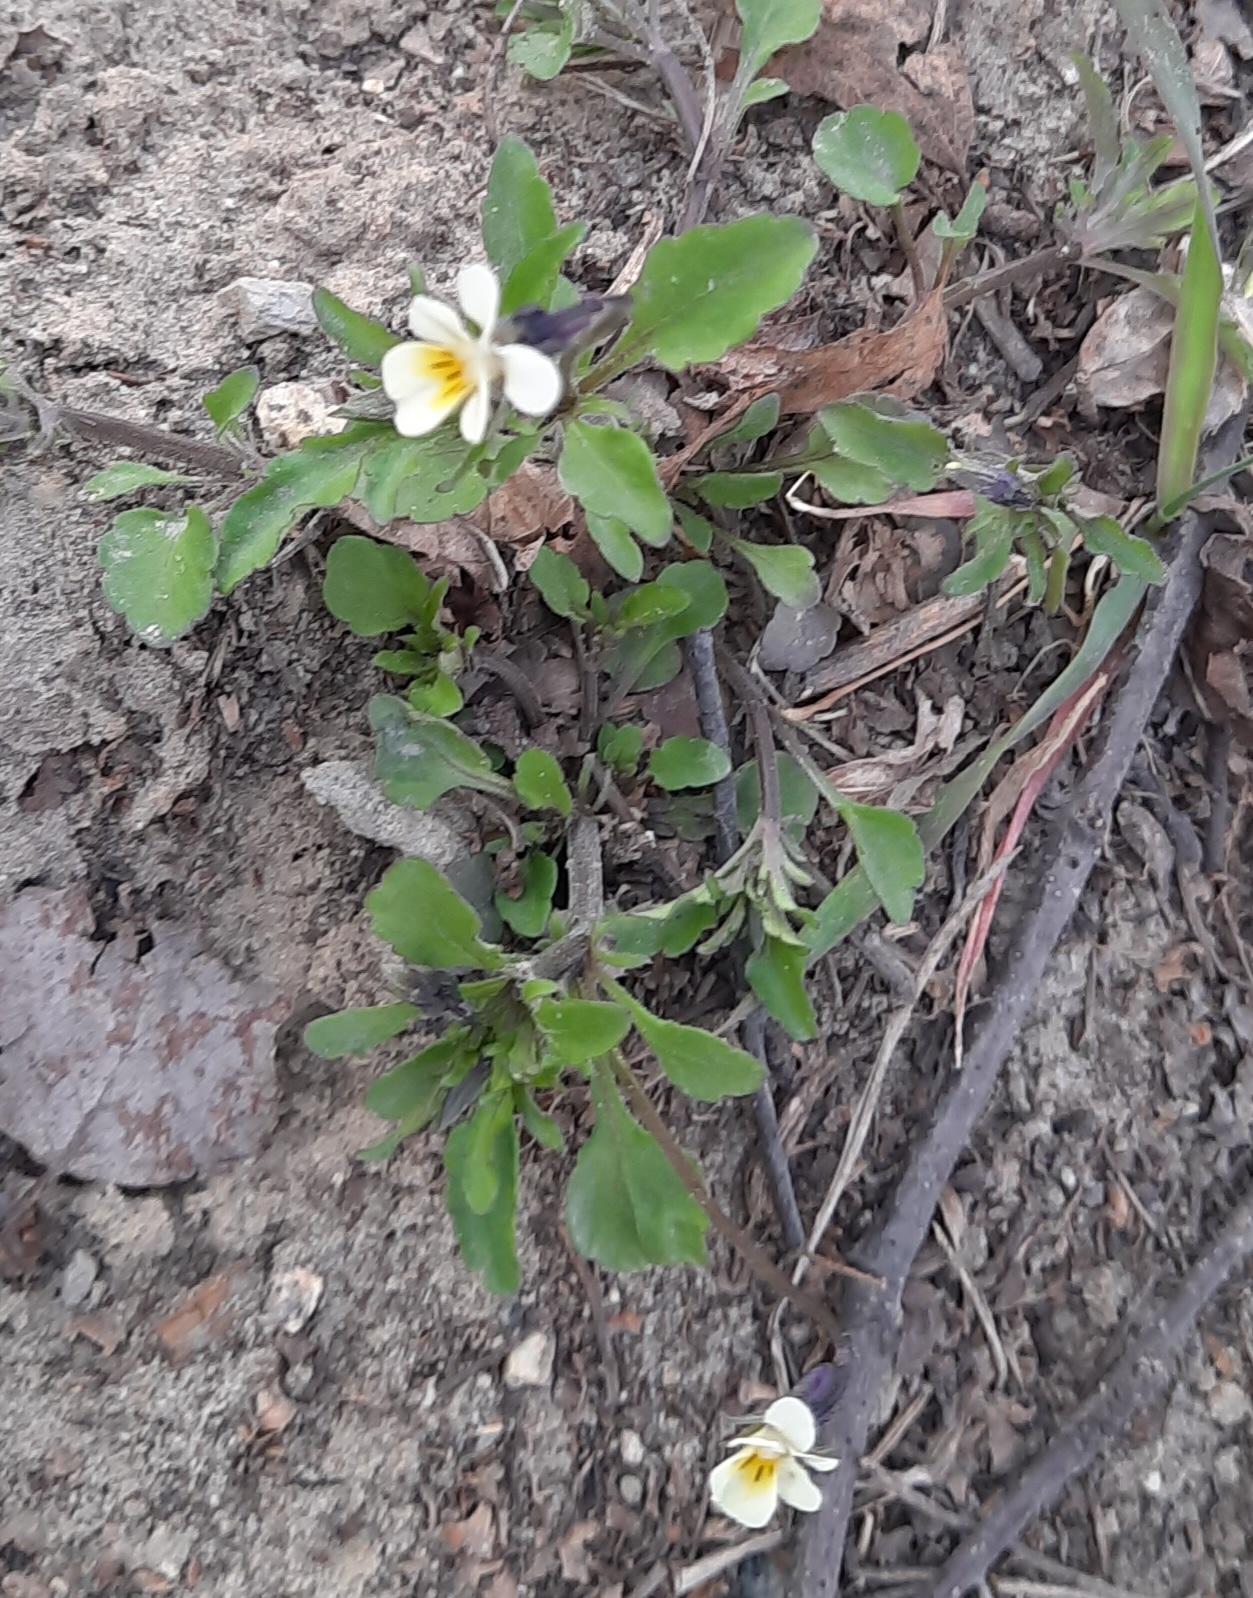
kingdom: Plantae
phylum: Tracheophyta
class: Magnoliopsida
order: Malpighiales
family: Violaceae
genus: Viola
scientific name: Viola arvensis
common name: Field pansy
